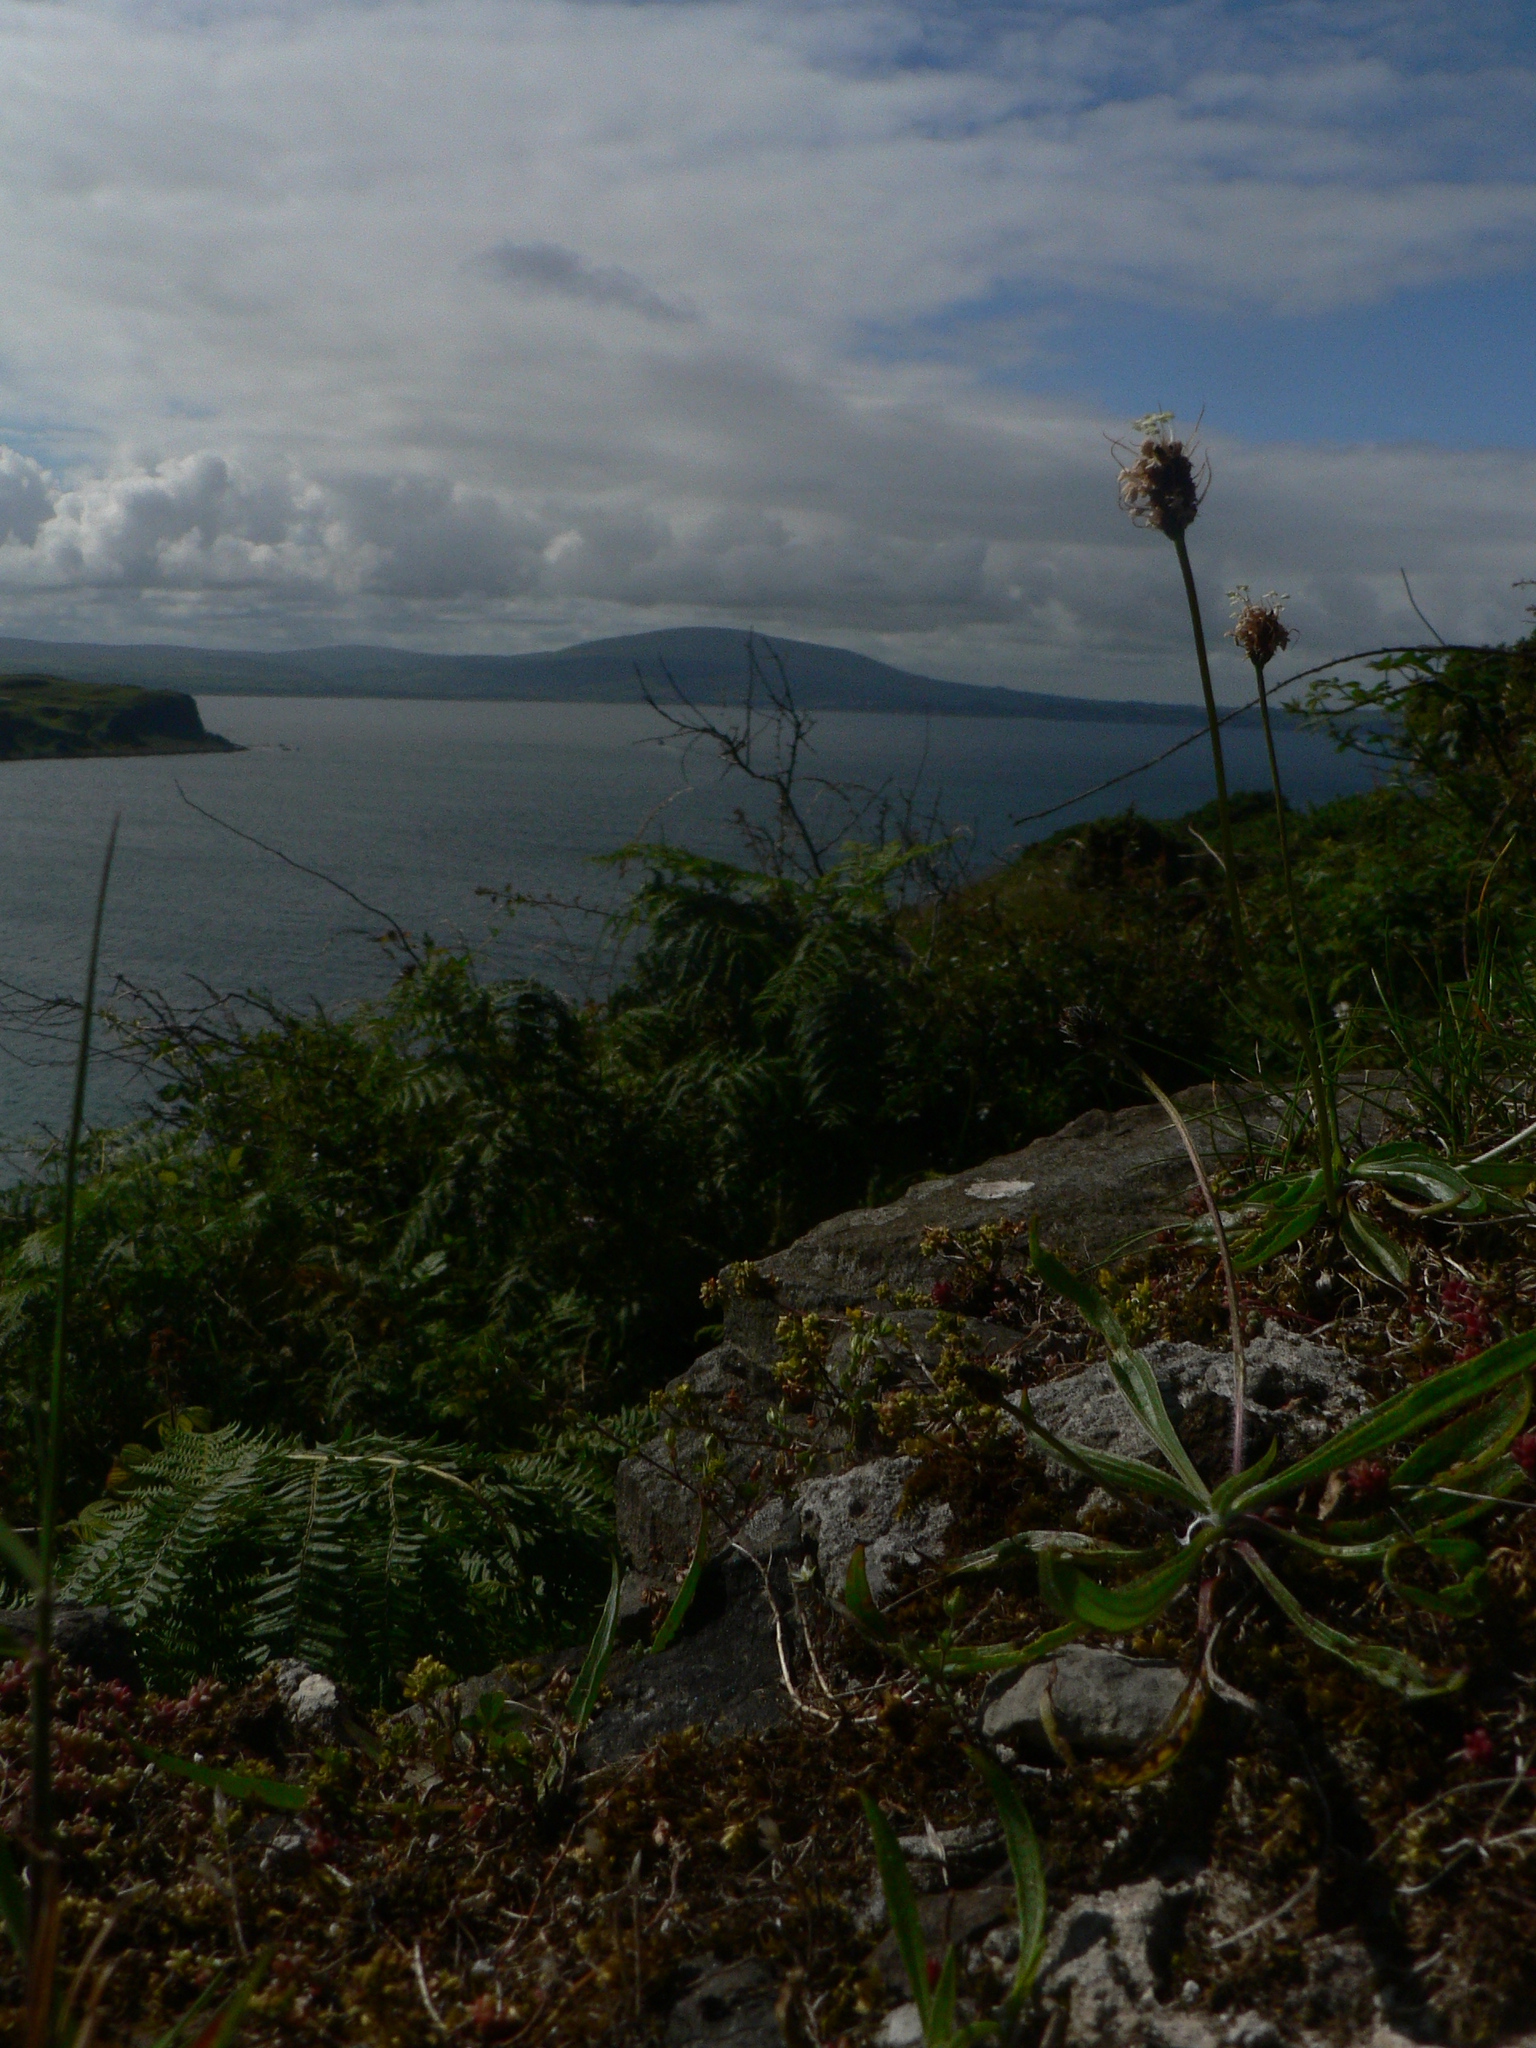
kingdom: Plantae
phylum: Tracheophyta
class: Magnoliopsida
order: Lamiales
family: Plantaginaceae
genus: Plantago
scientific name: Plantago lanceolata
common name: Ribwort plantain
